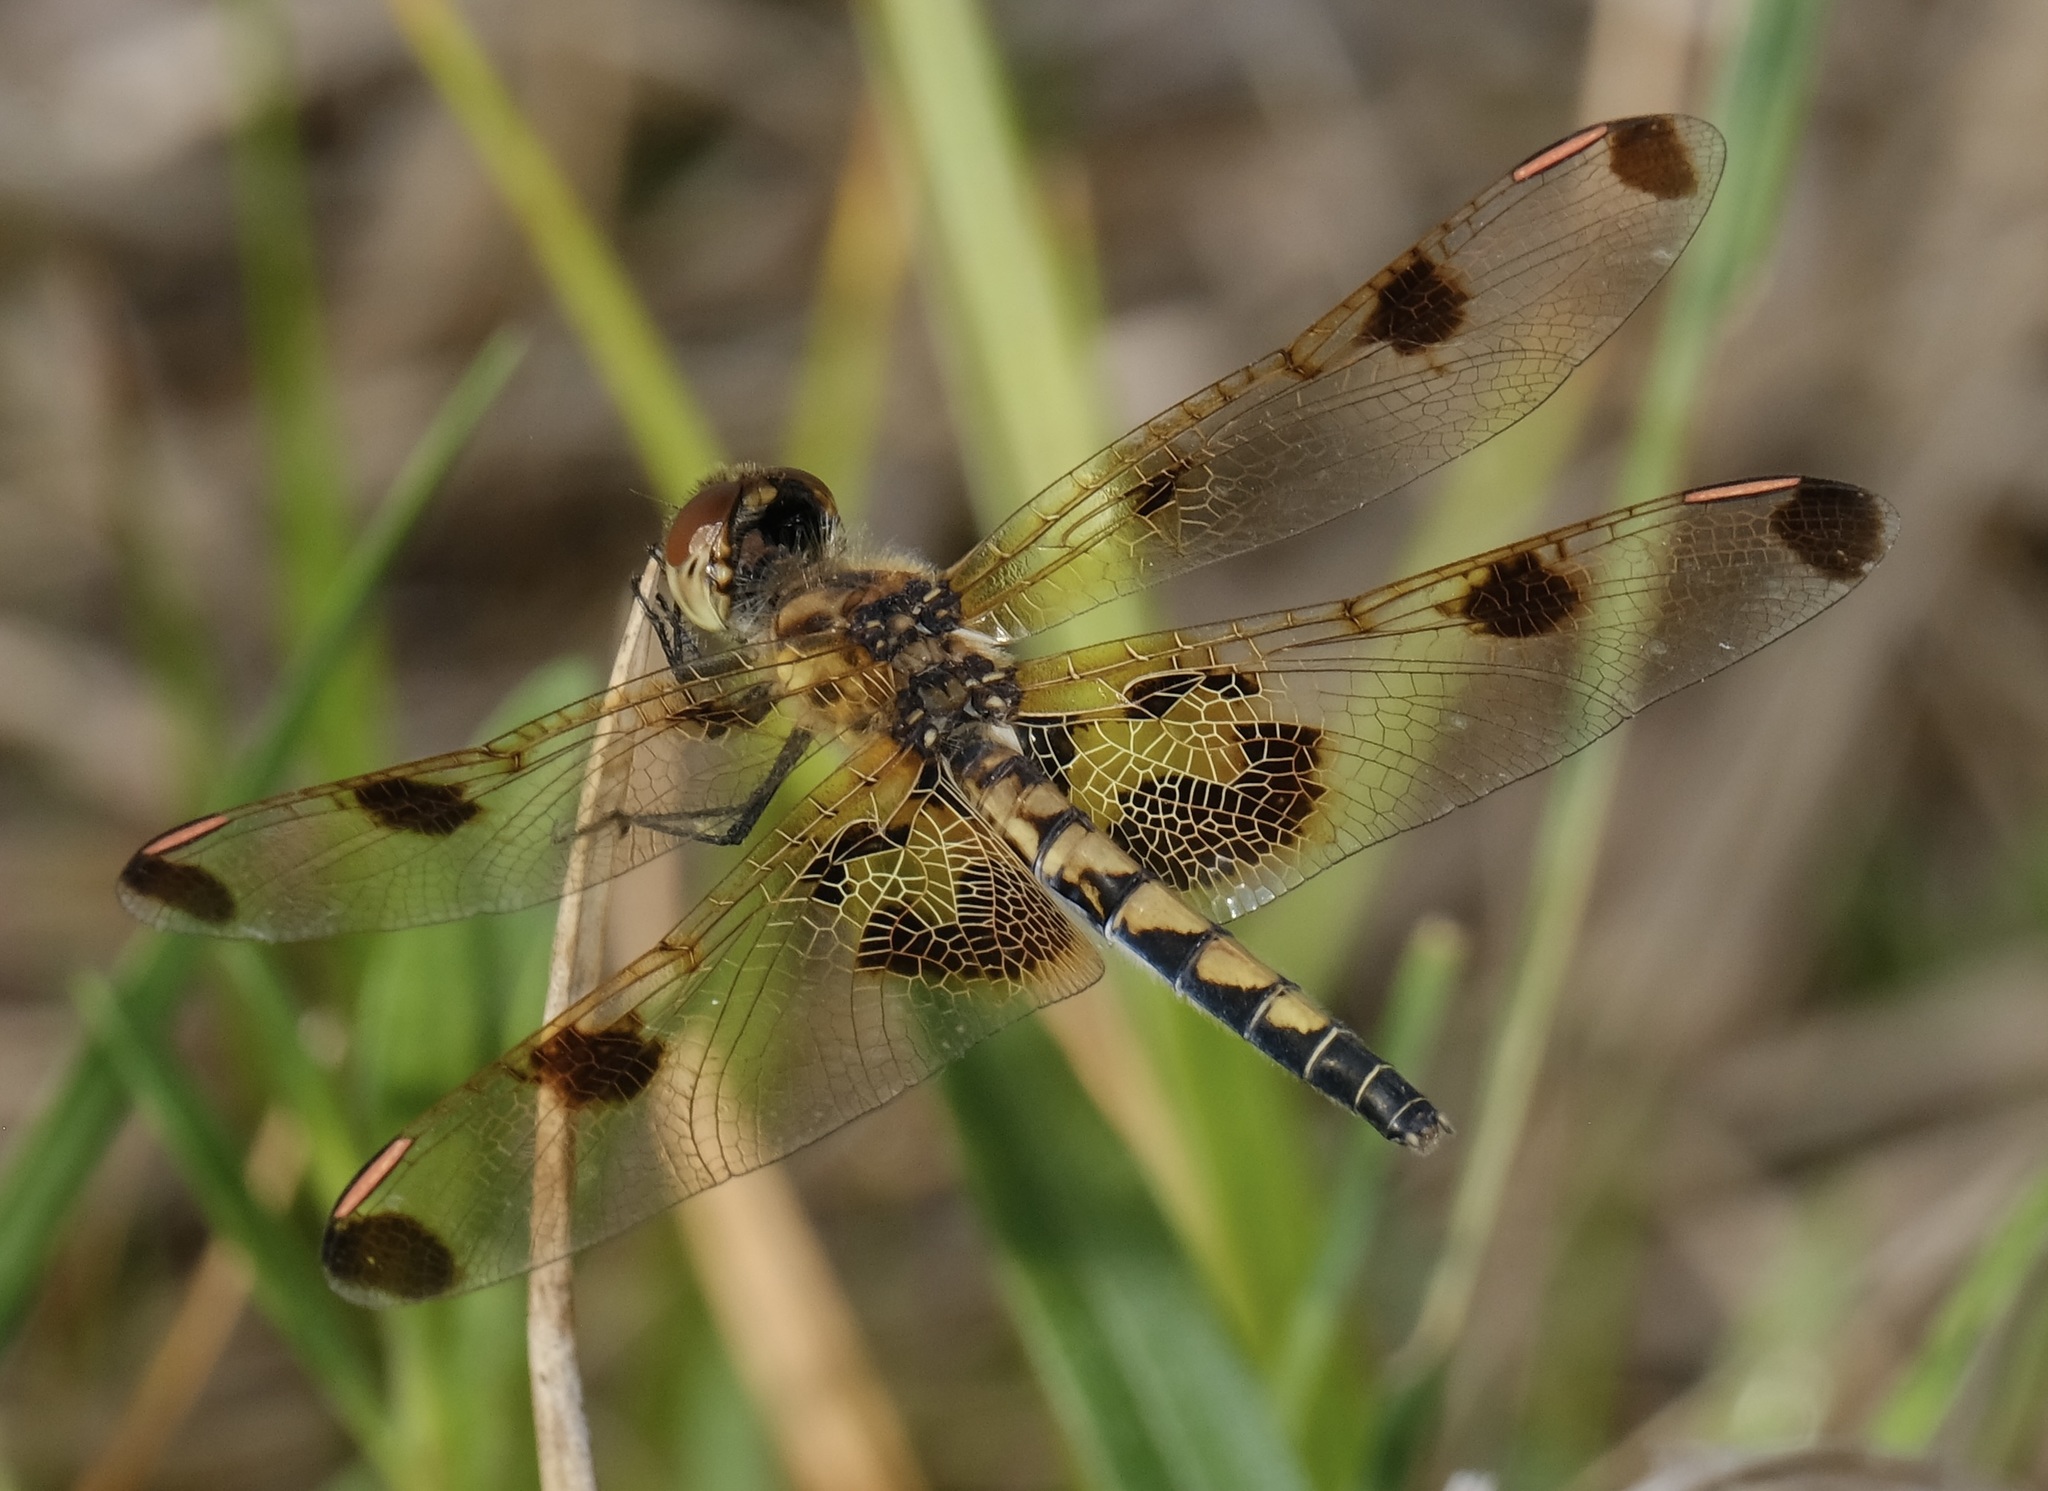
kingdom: Animalia
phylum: Arthropoda
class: Insecta
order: Odonata
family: Libellulidae
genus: Celithemis
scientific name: Celithemis elisa
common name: Calico pennant
